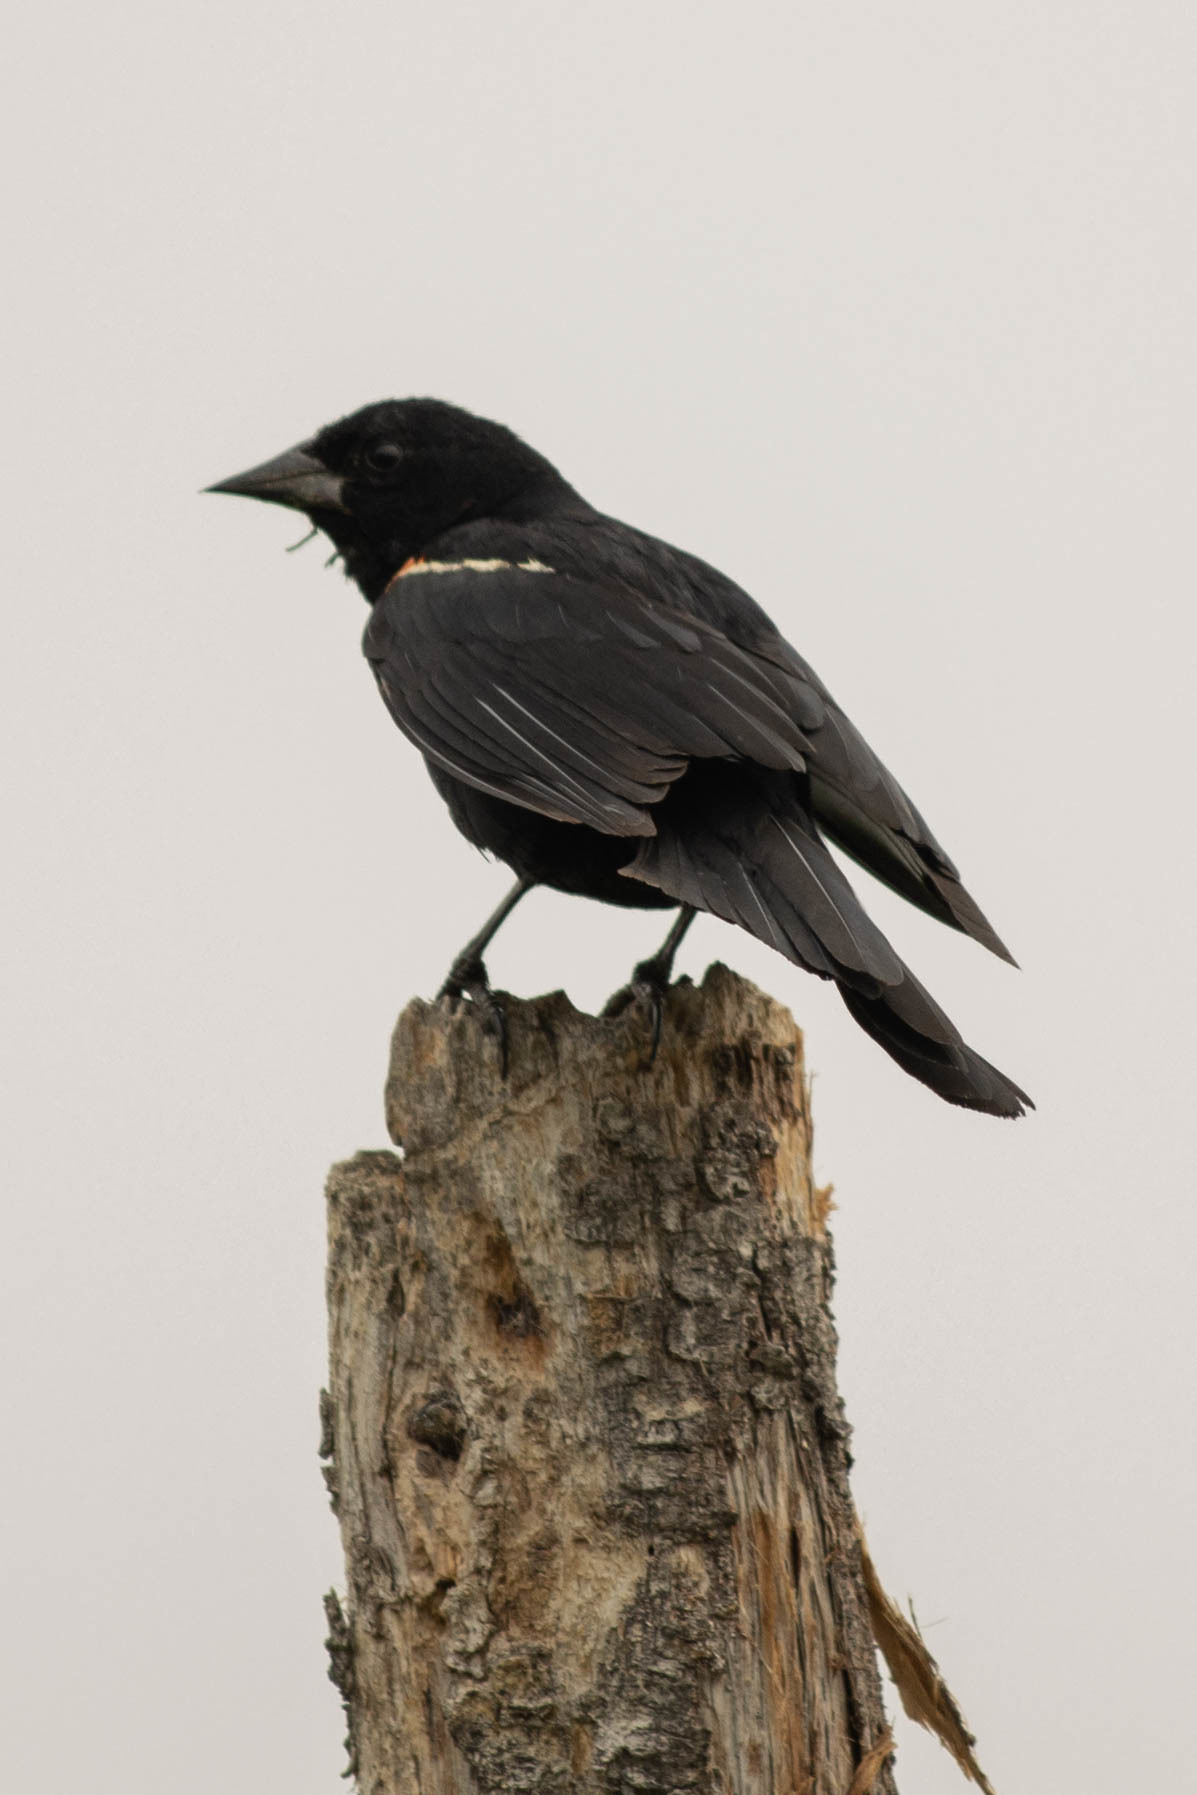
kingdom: Animalia
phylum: Chordata
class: Aves
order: Passeriformes
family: Icteridae
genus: Agelaius
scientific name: Agelaius phoeniceus
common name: Red-winged blackbird
